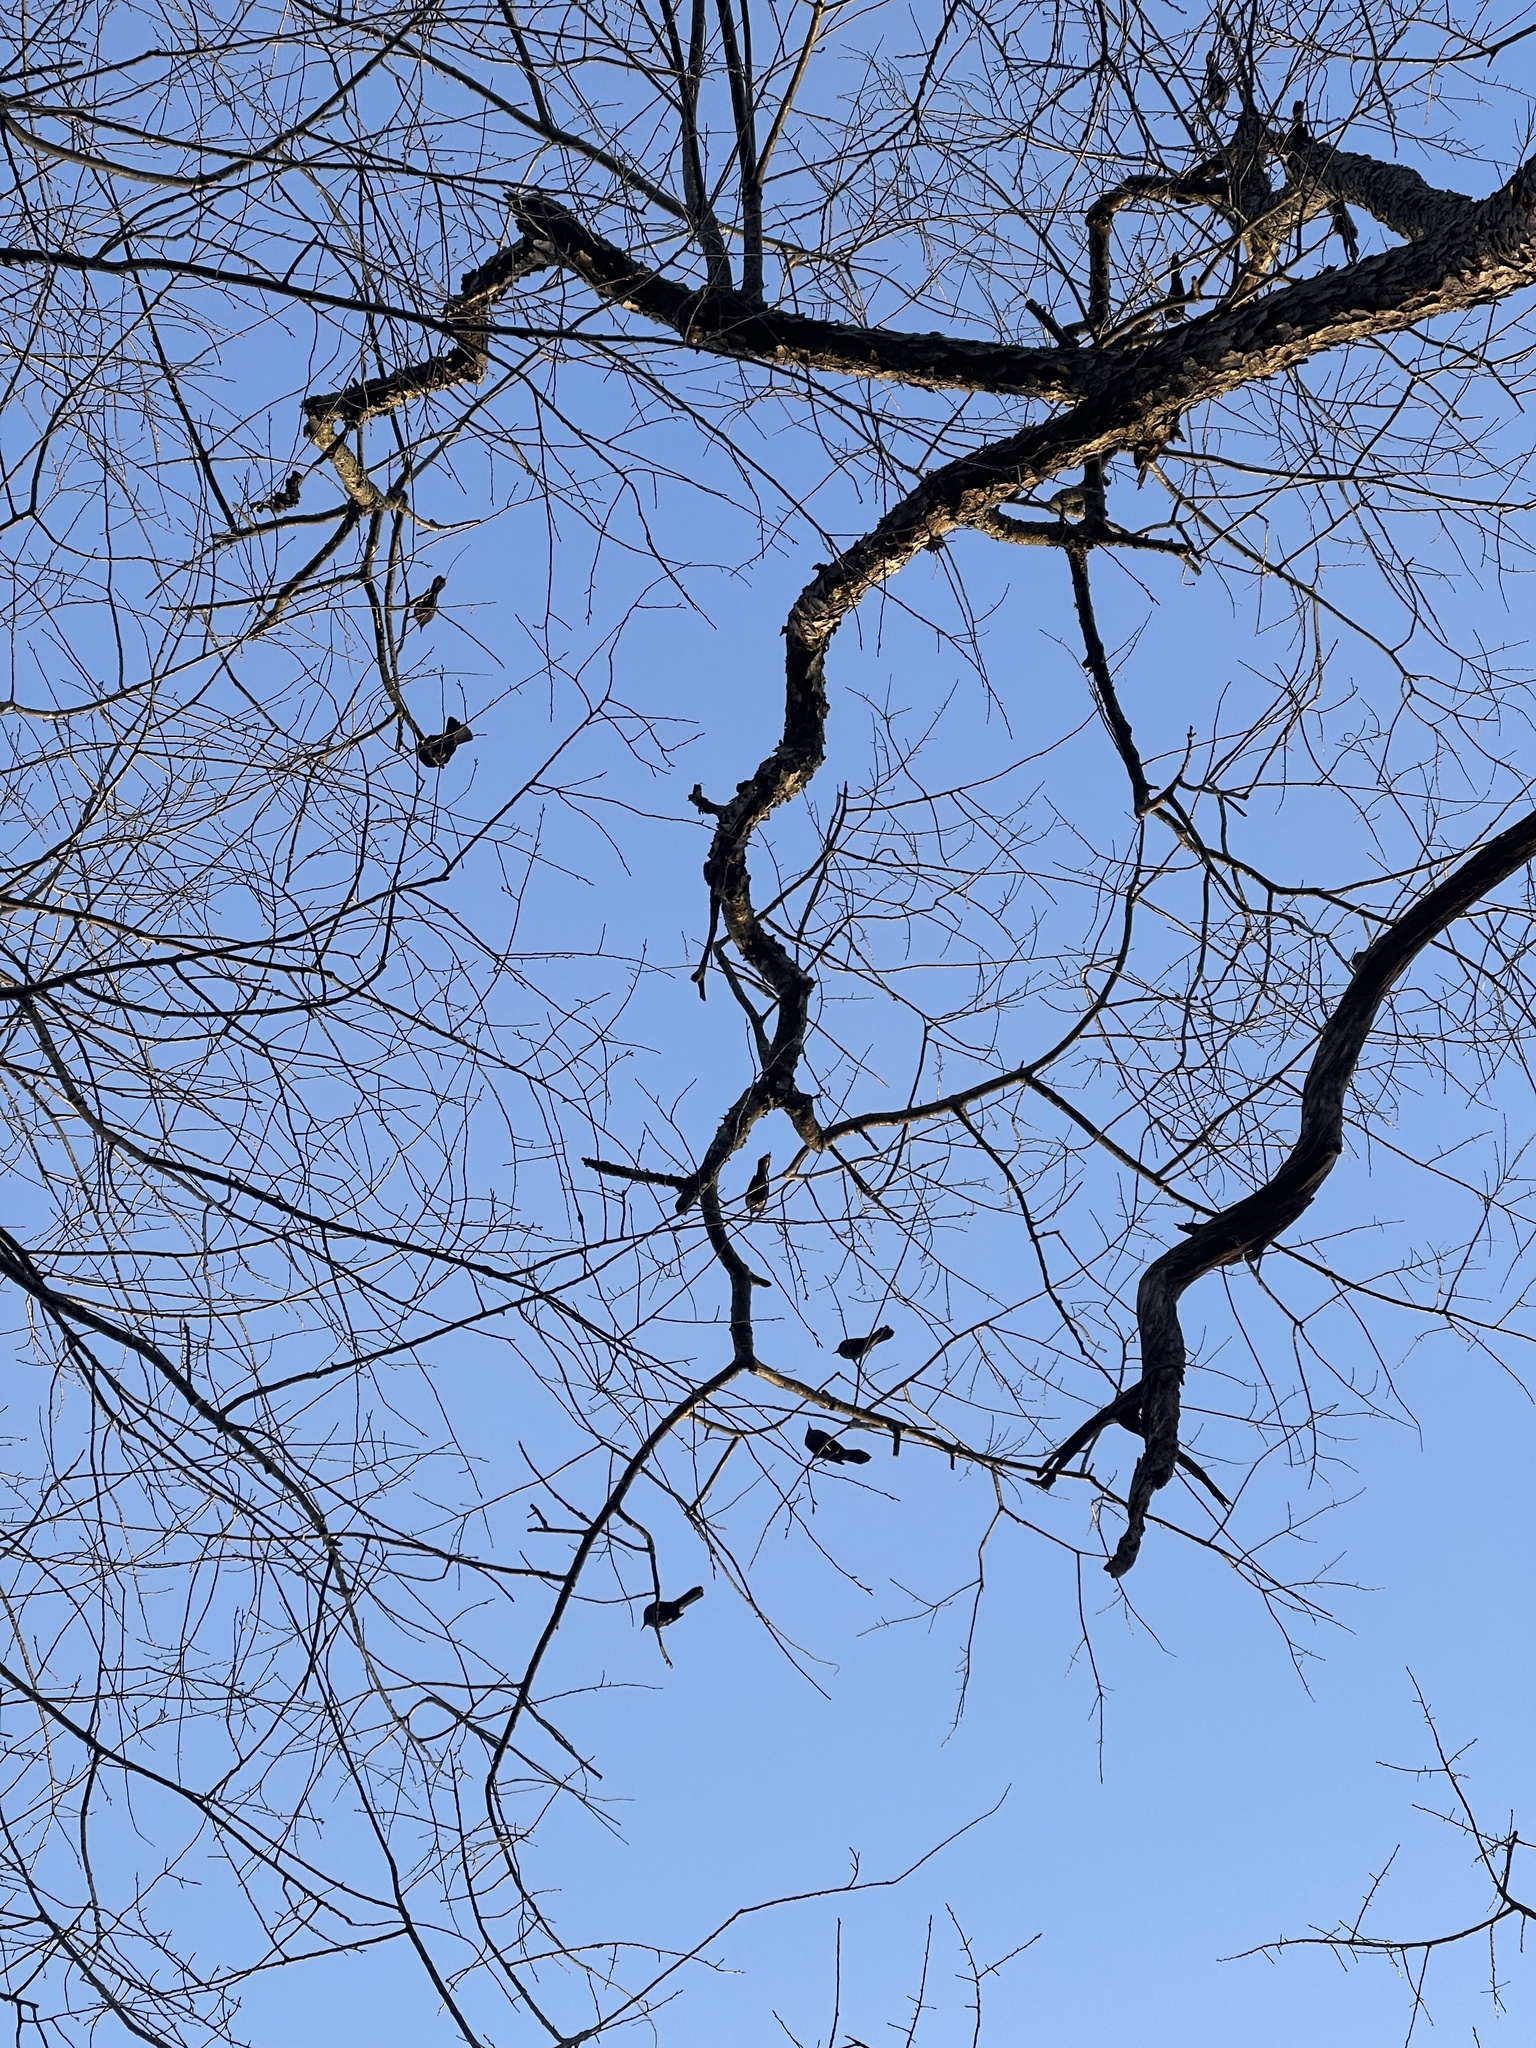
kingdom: Animalia
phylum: Chordata
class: Aves
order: Passeriformes
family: Icteridae
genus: Quiscalus
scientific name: Quiscalus quiscula
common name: Common grackle
